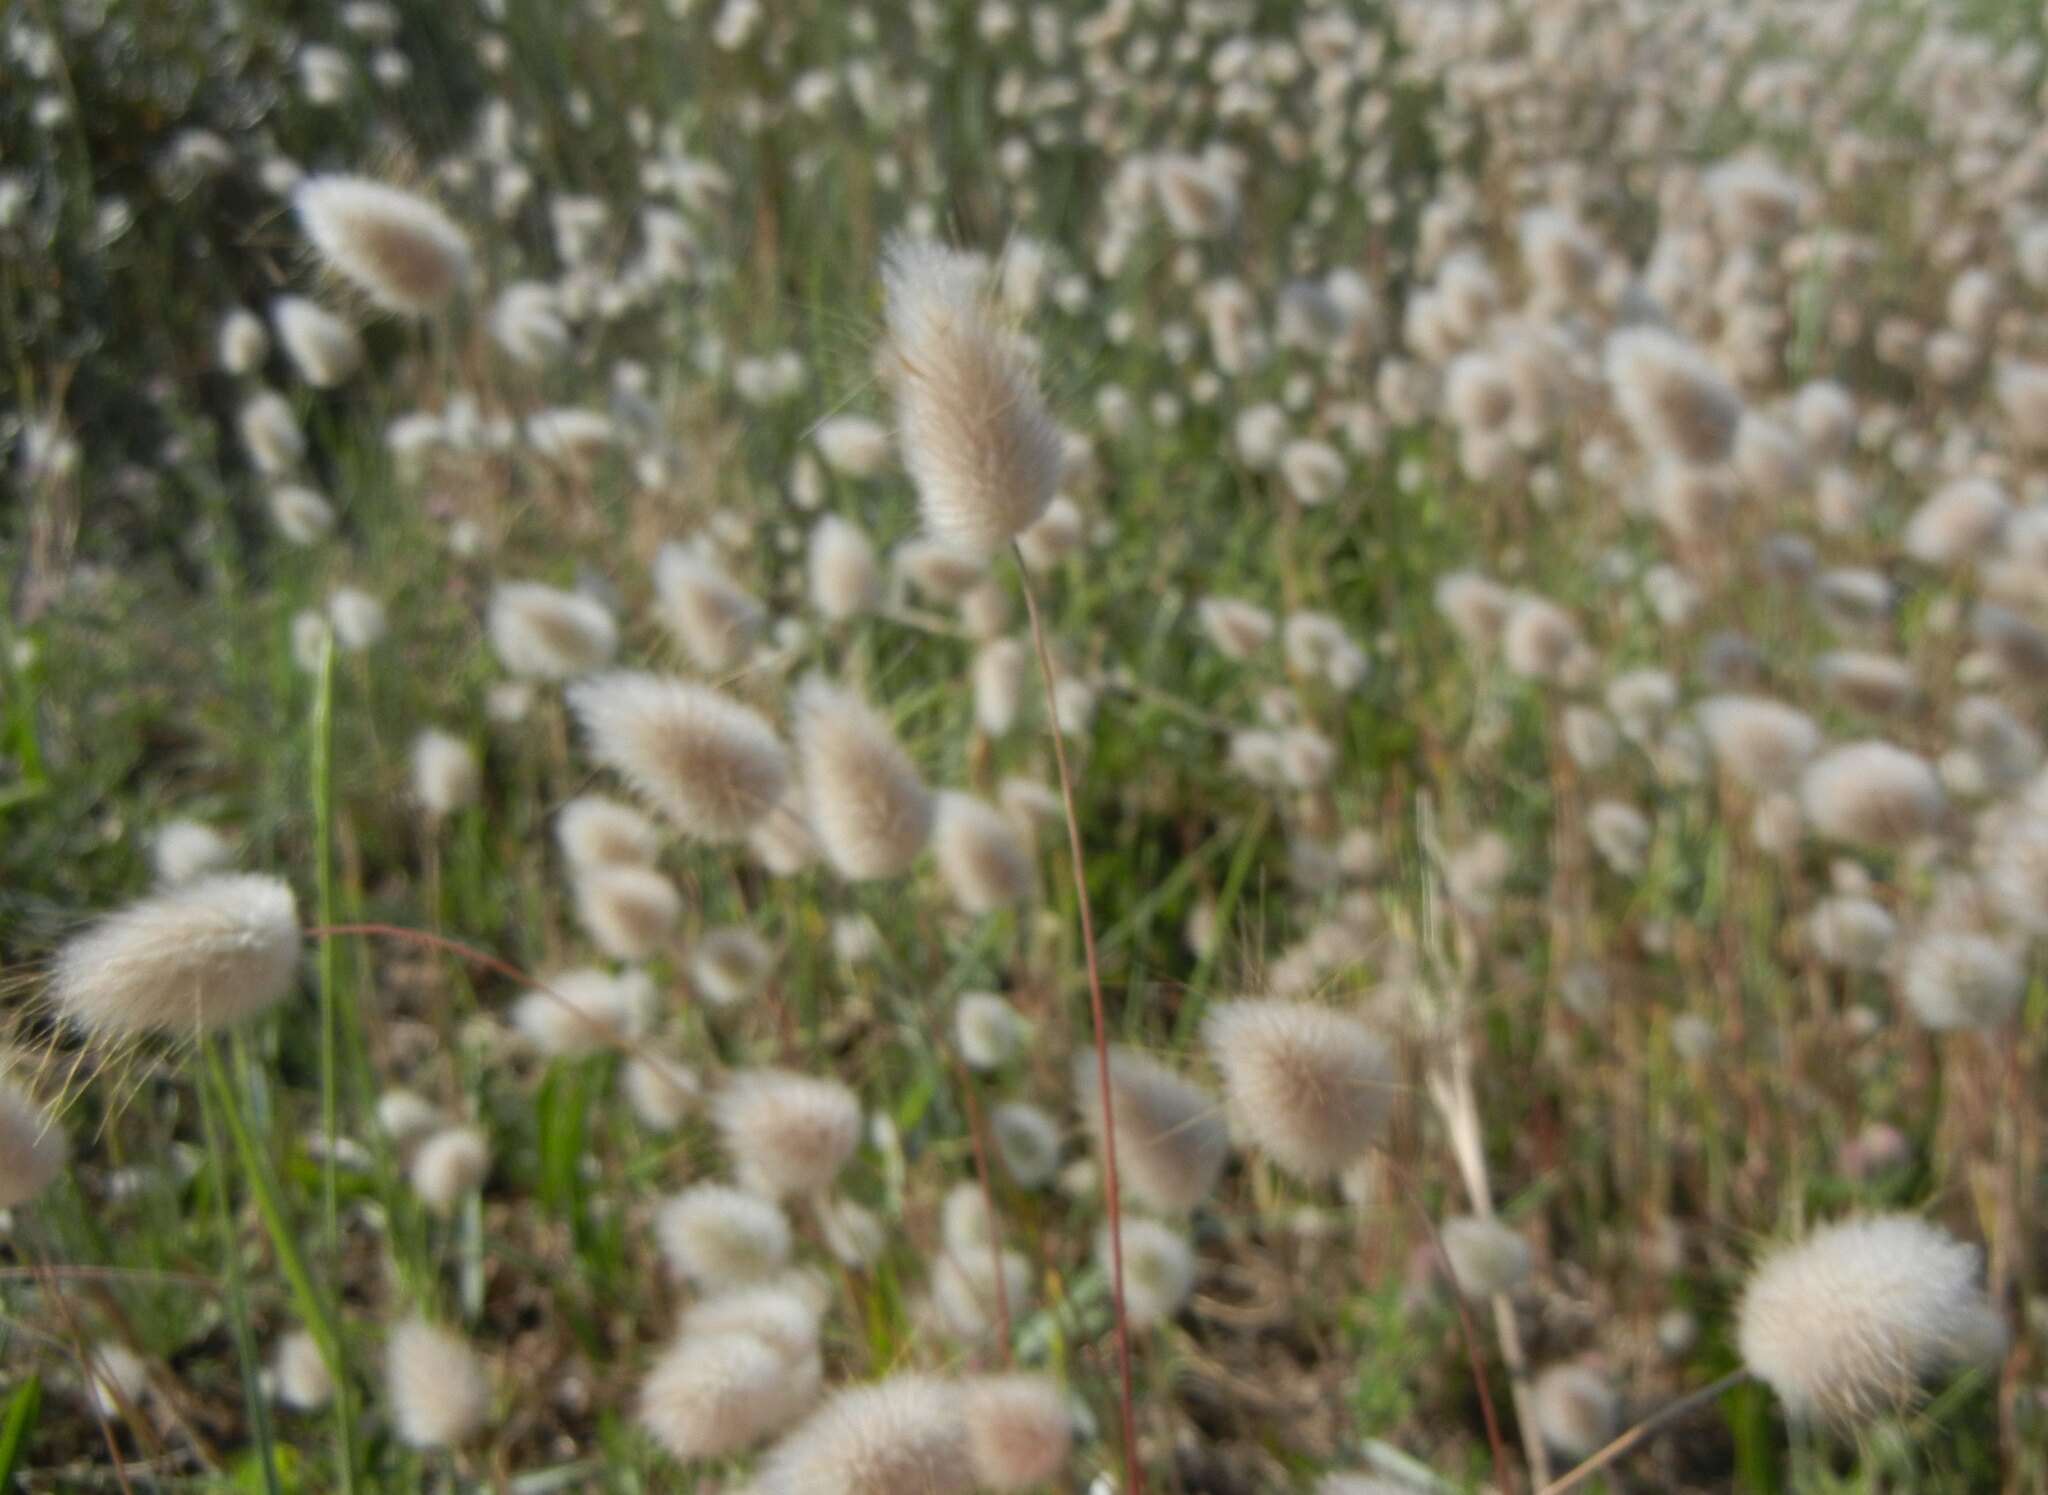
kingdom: Plantae
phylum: Tracheophyta
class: Liliopsida
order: Poales
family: Poaceae
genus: Lagurus
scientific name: Lagurus ovatus
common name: Hare's-tail
